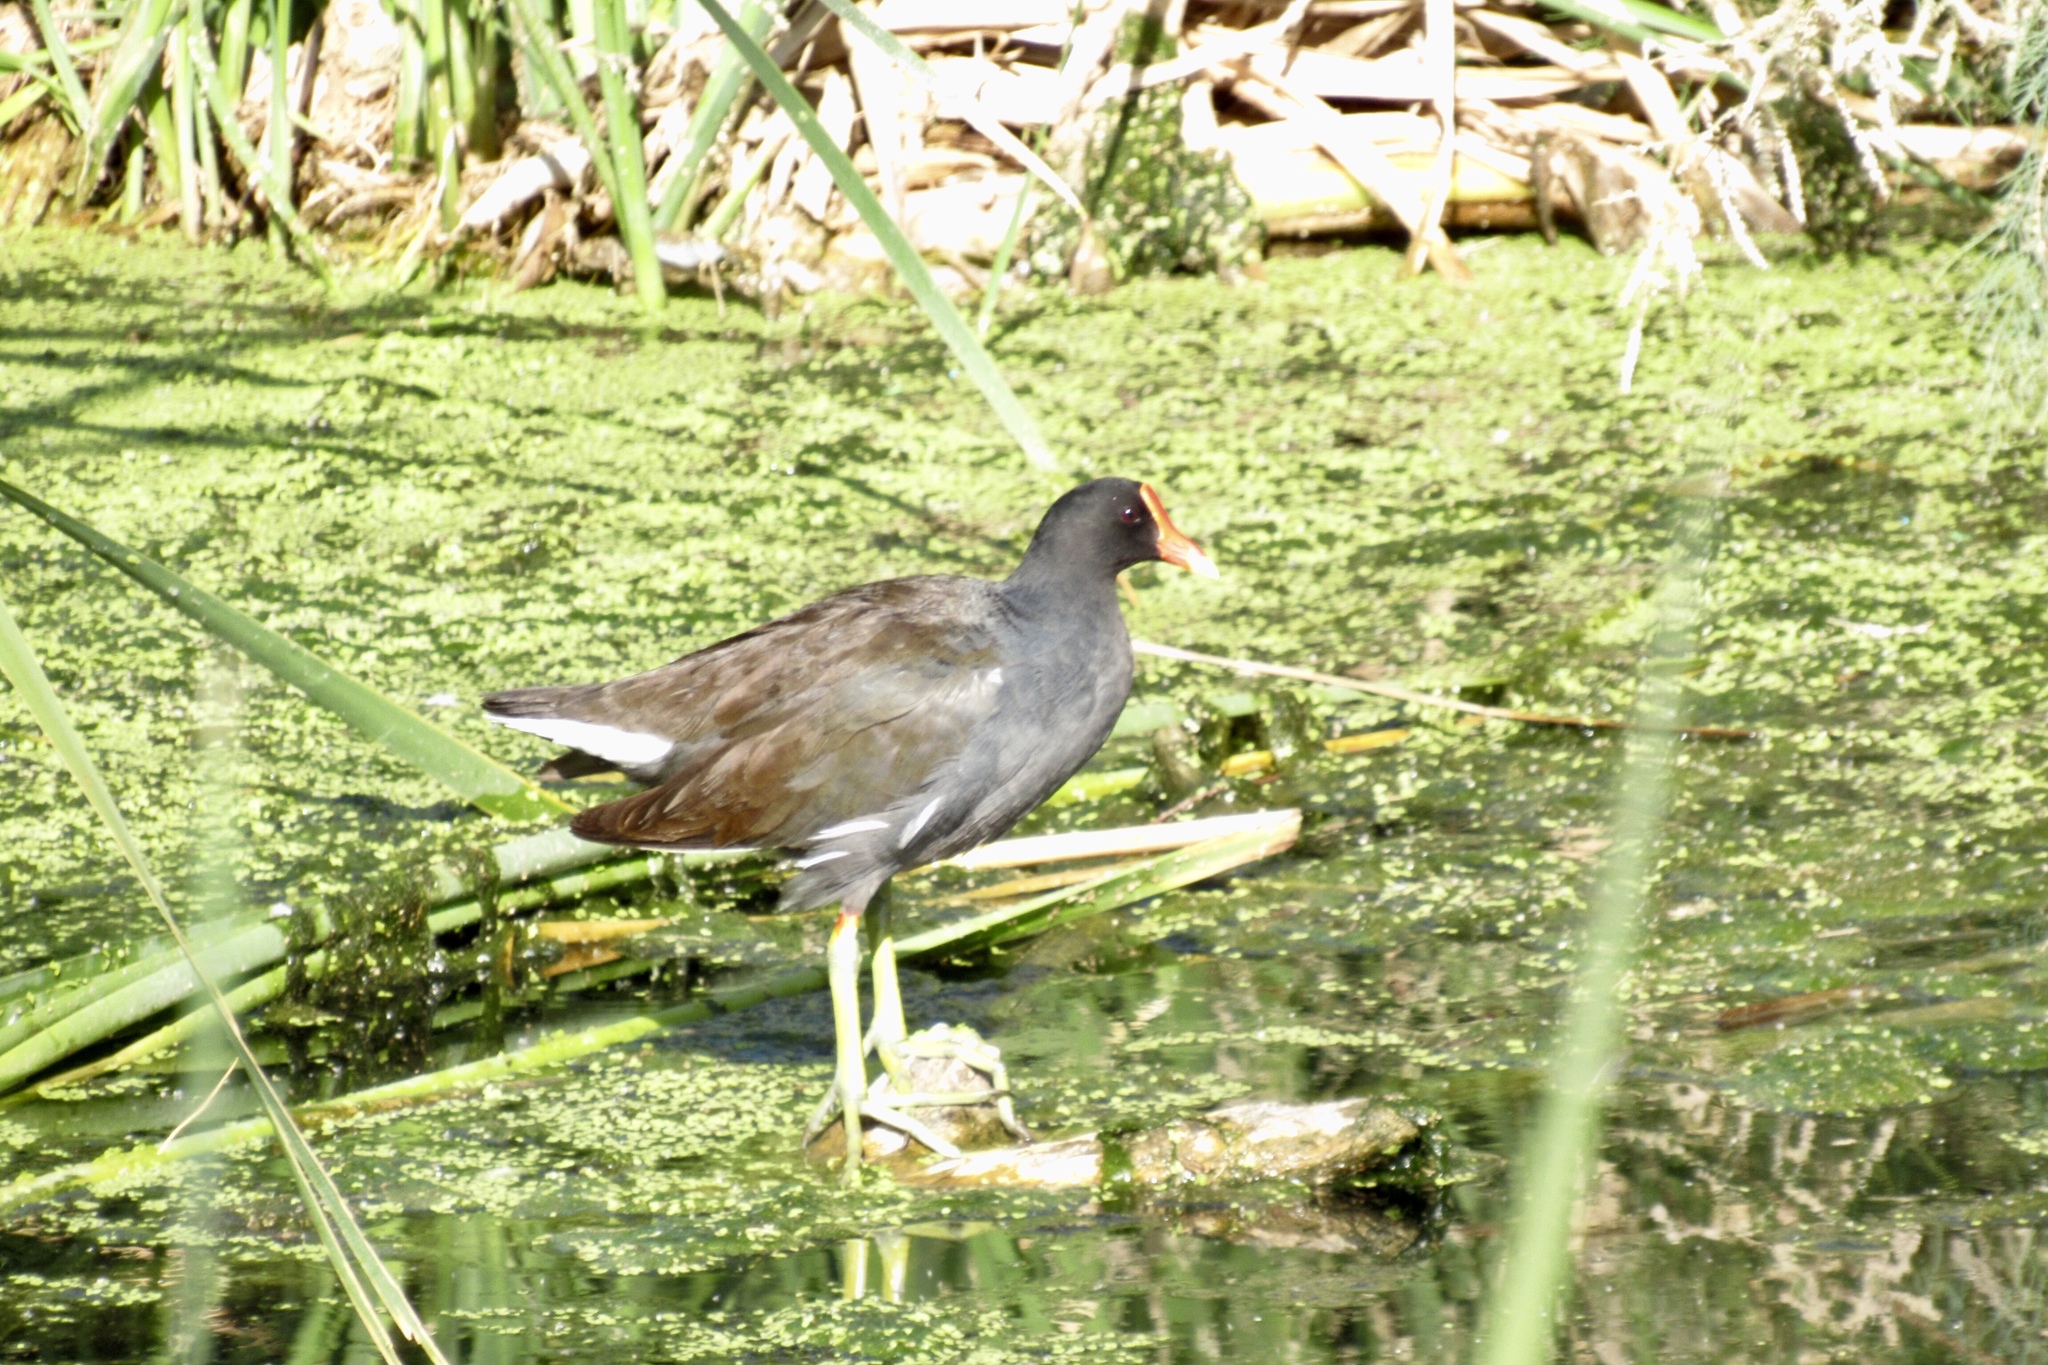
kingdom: Animalia
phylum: Chordata
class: Aves
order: Gruiformes
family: Rallidae
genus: Gallinula
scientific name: Gallinula chloropus
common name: Common moorhen
